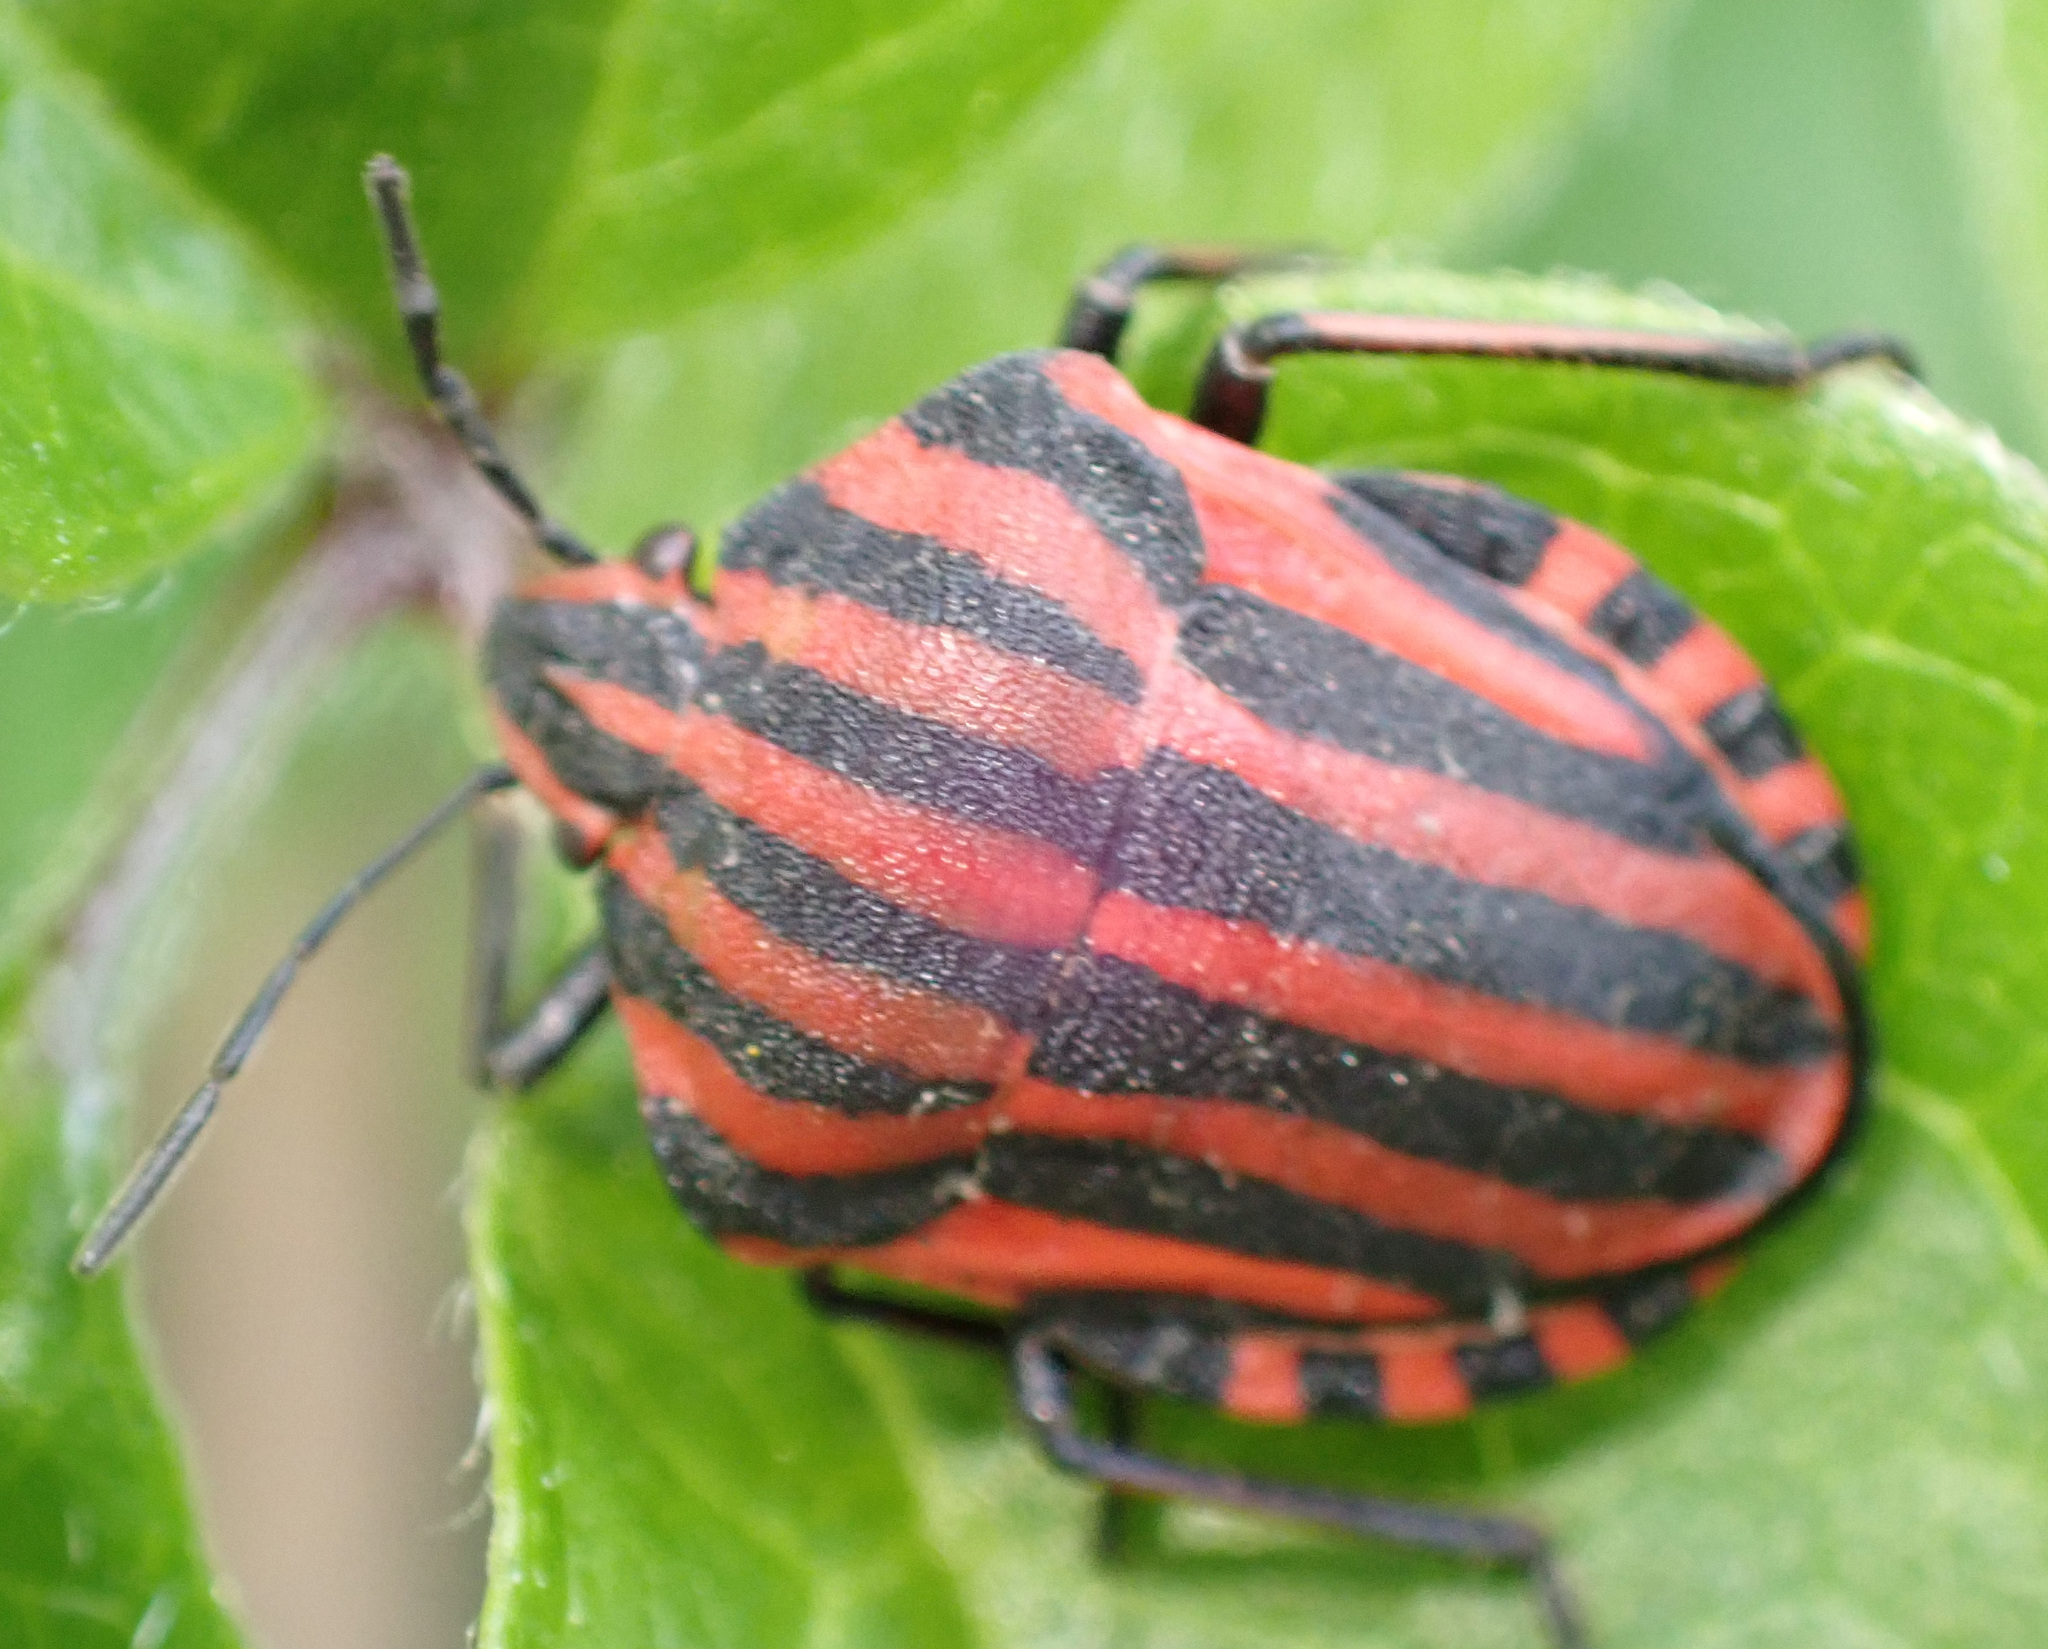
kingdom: Animalia
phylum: Arthropoda
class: Insecta
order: Hemiptera
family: Pentatomidae
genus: Graphosoma
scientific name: Graphosoma italicum
